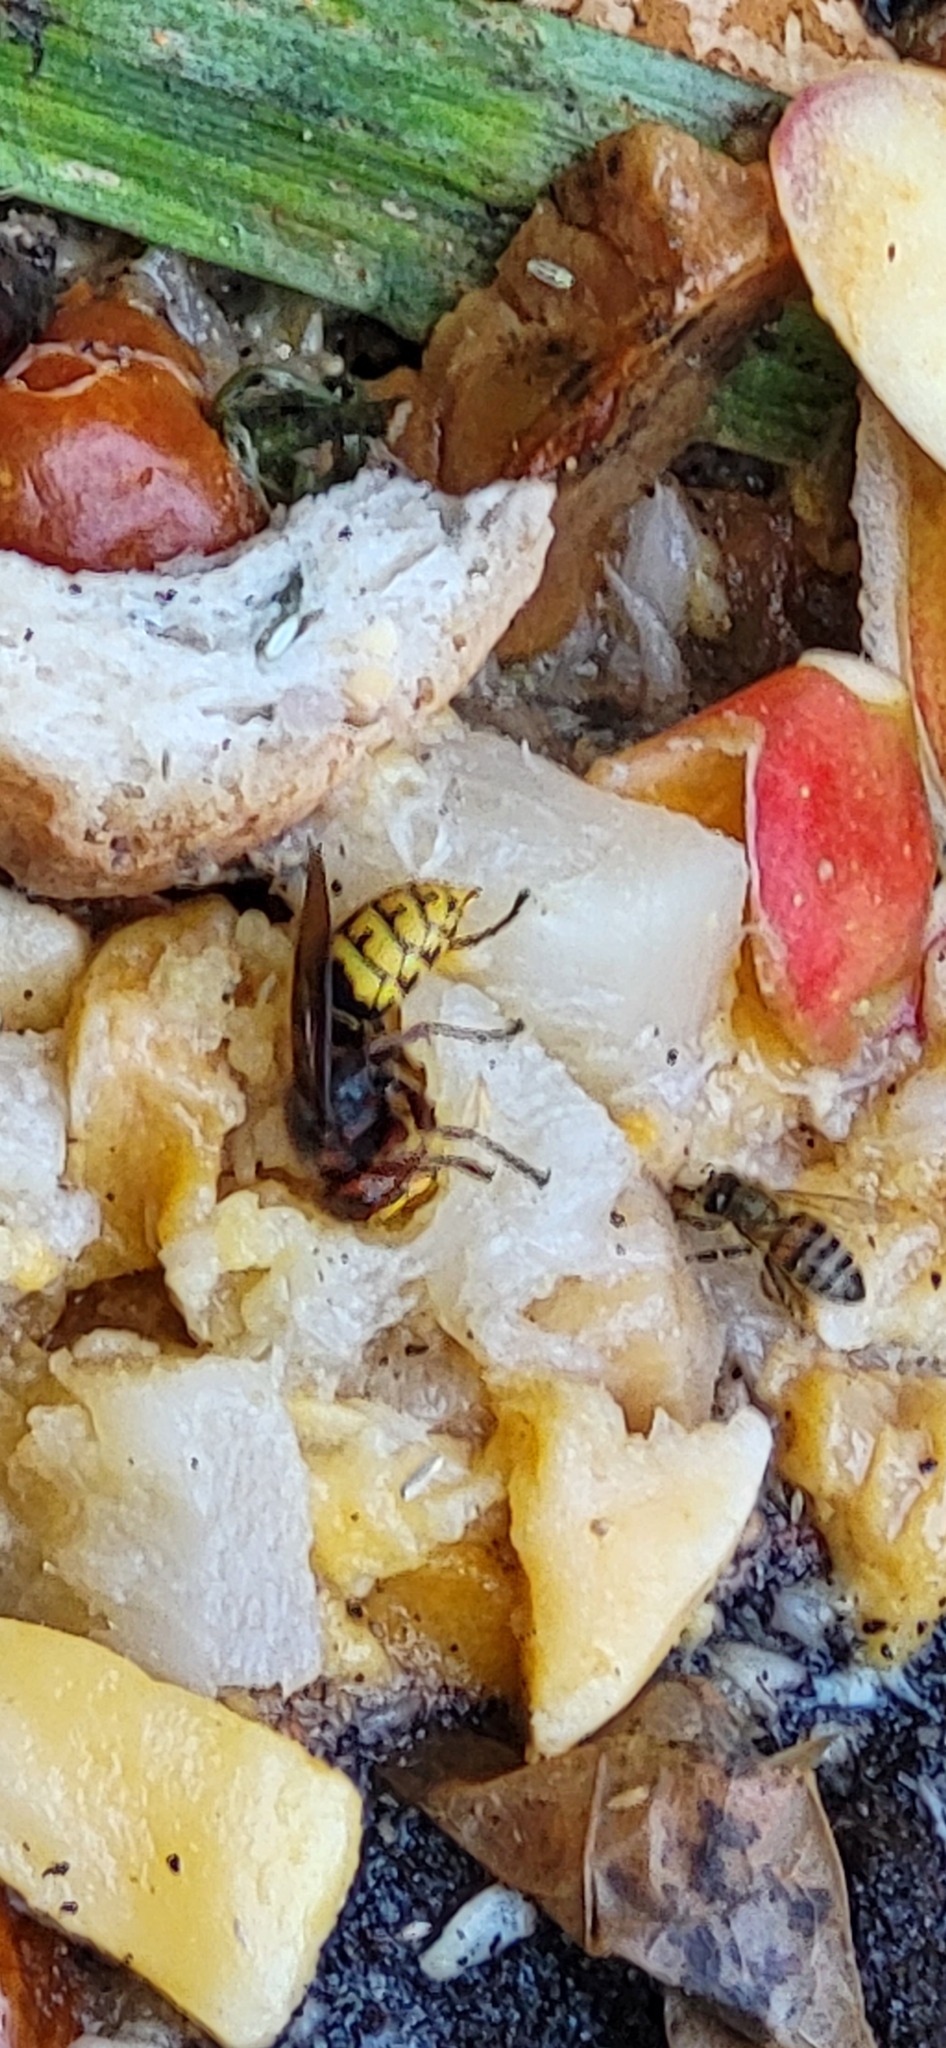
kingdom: Animalia
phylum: Arthropoda
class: Insecta
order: Hymenoptera
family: Vespidae
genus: Vespa
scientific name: Vespa crabro
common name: Hornet
